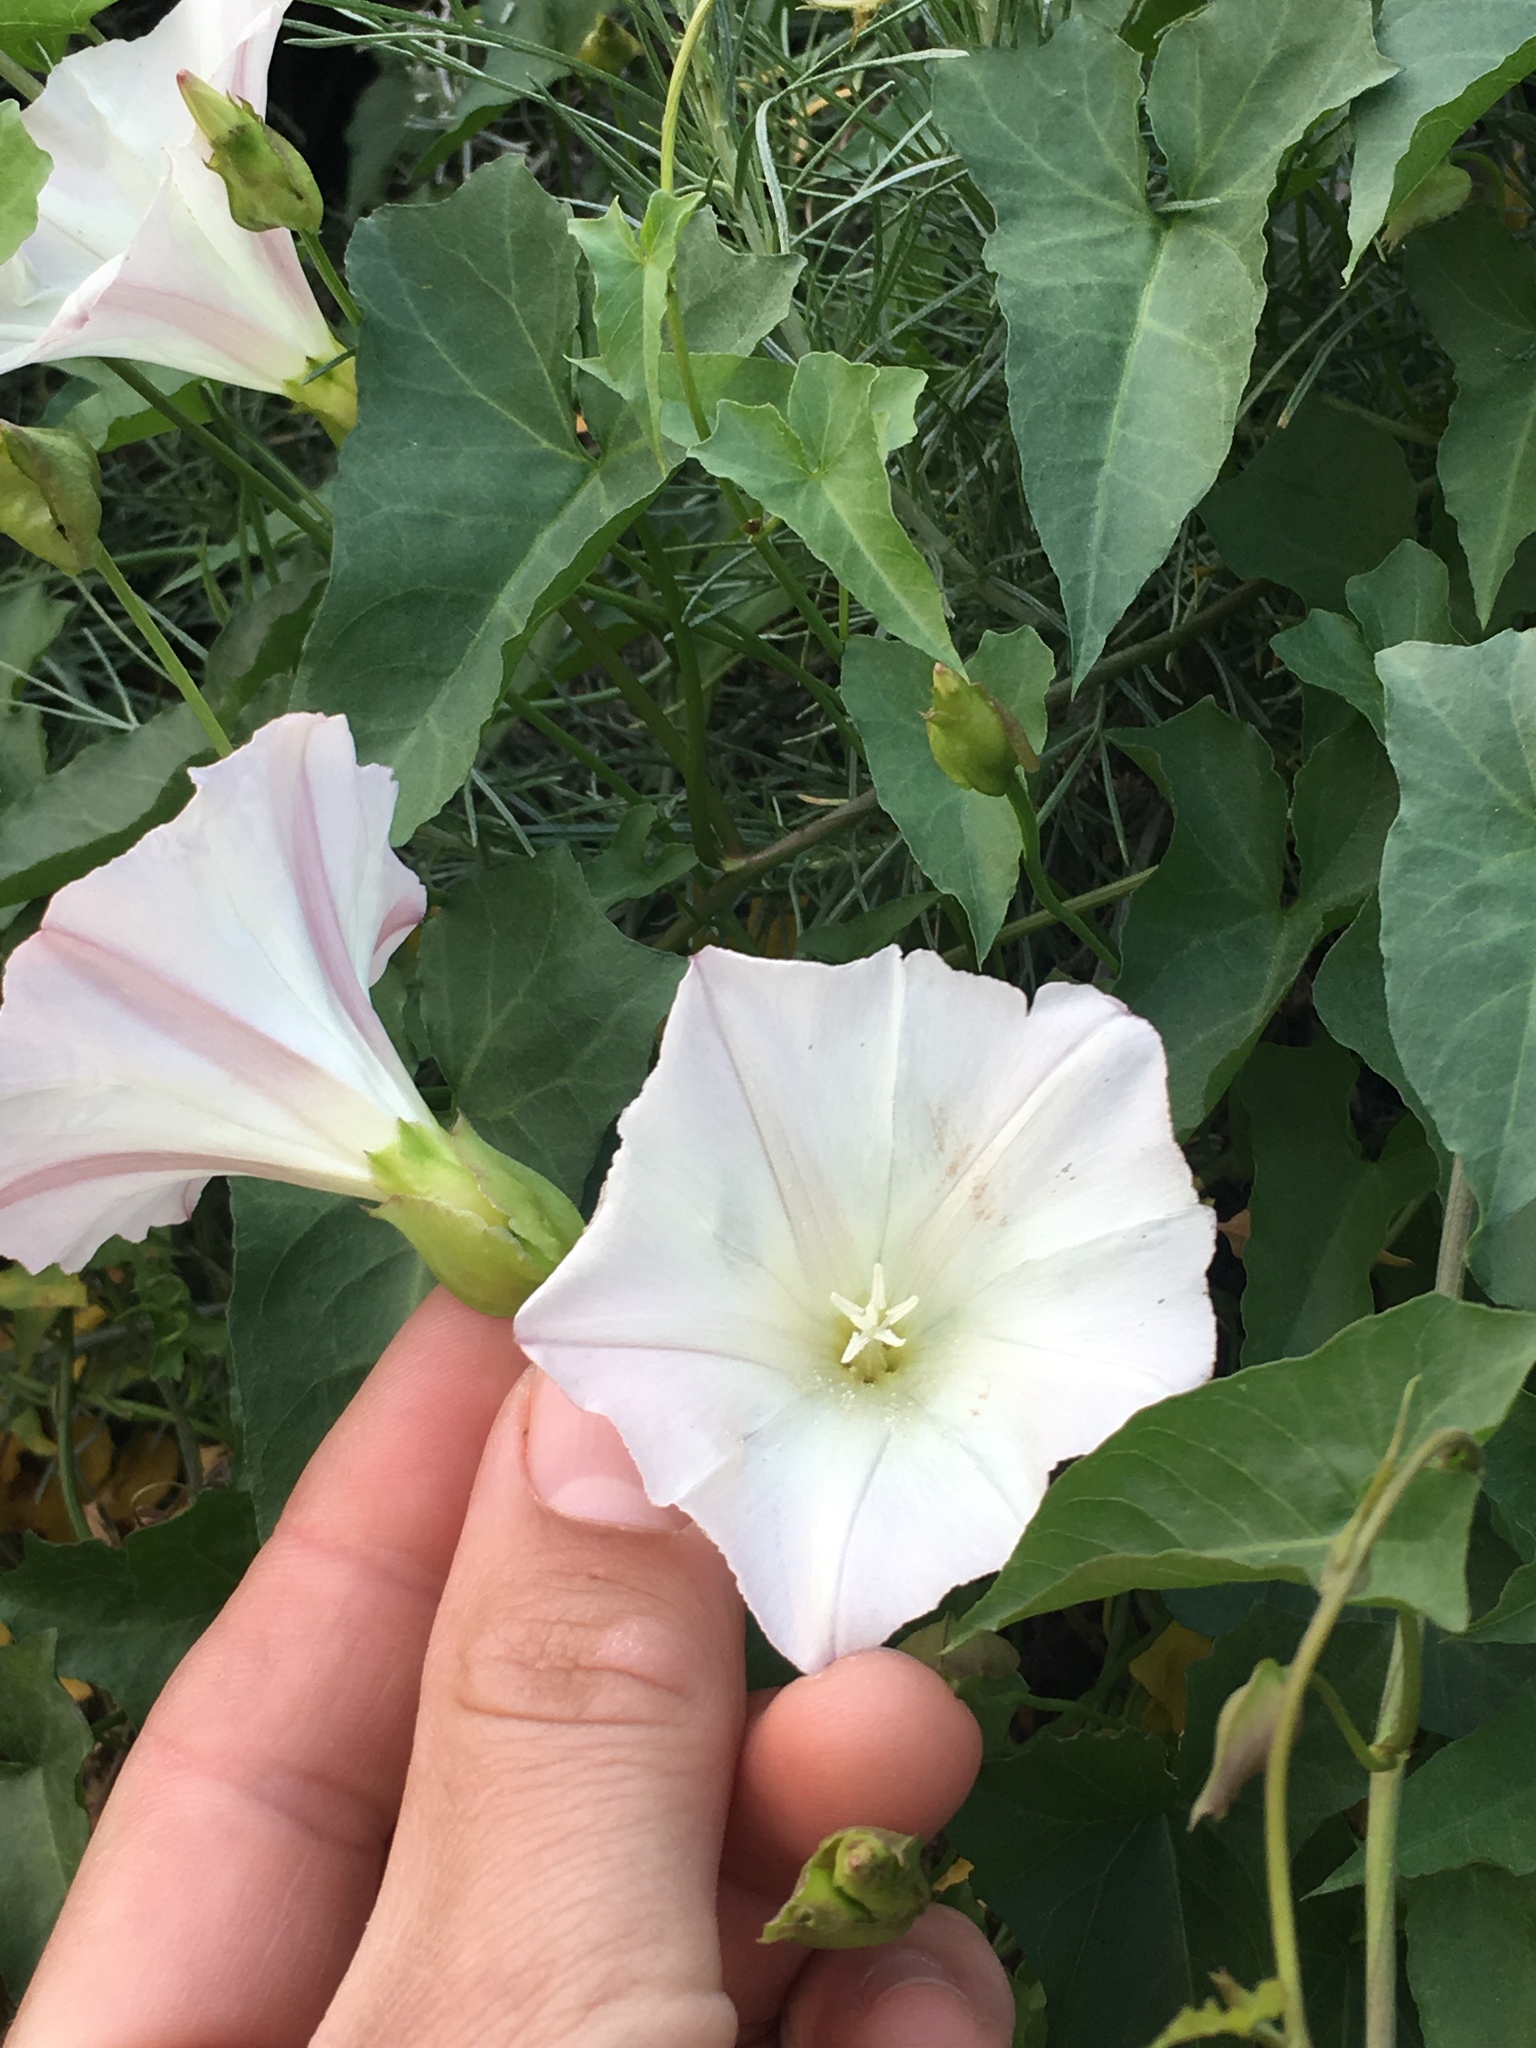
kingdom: Plantae
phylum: Tracheophyta
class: Magnoliopsida
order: Solanales
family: Convolvulaceae
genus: Calystegia
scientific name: Calystegia macrostegia
